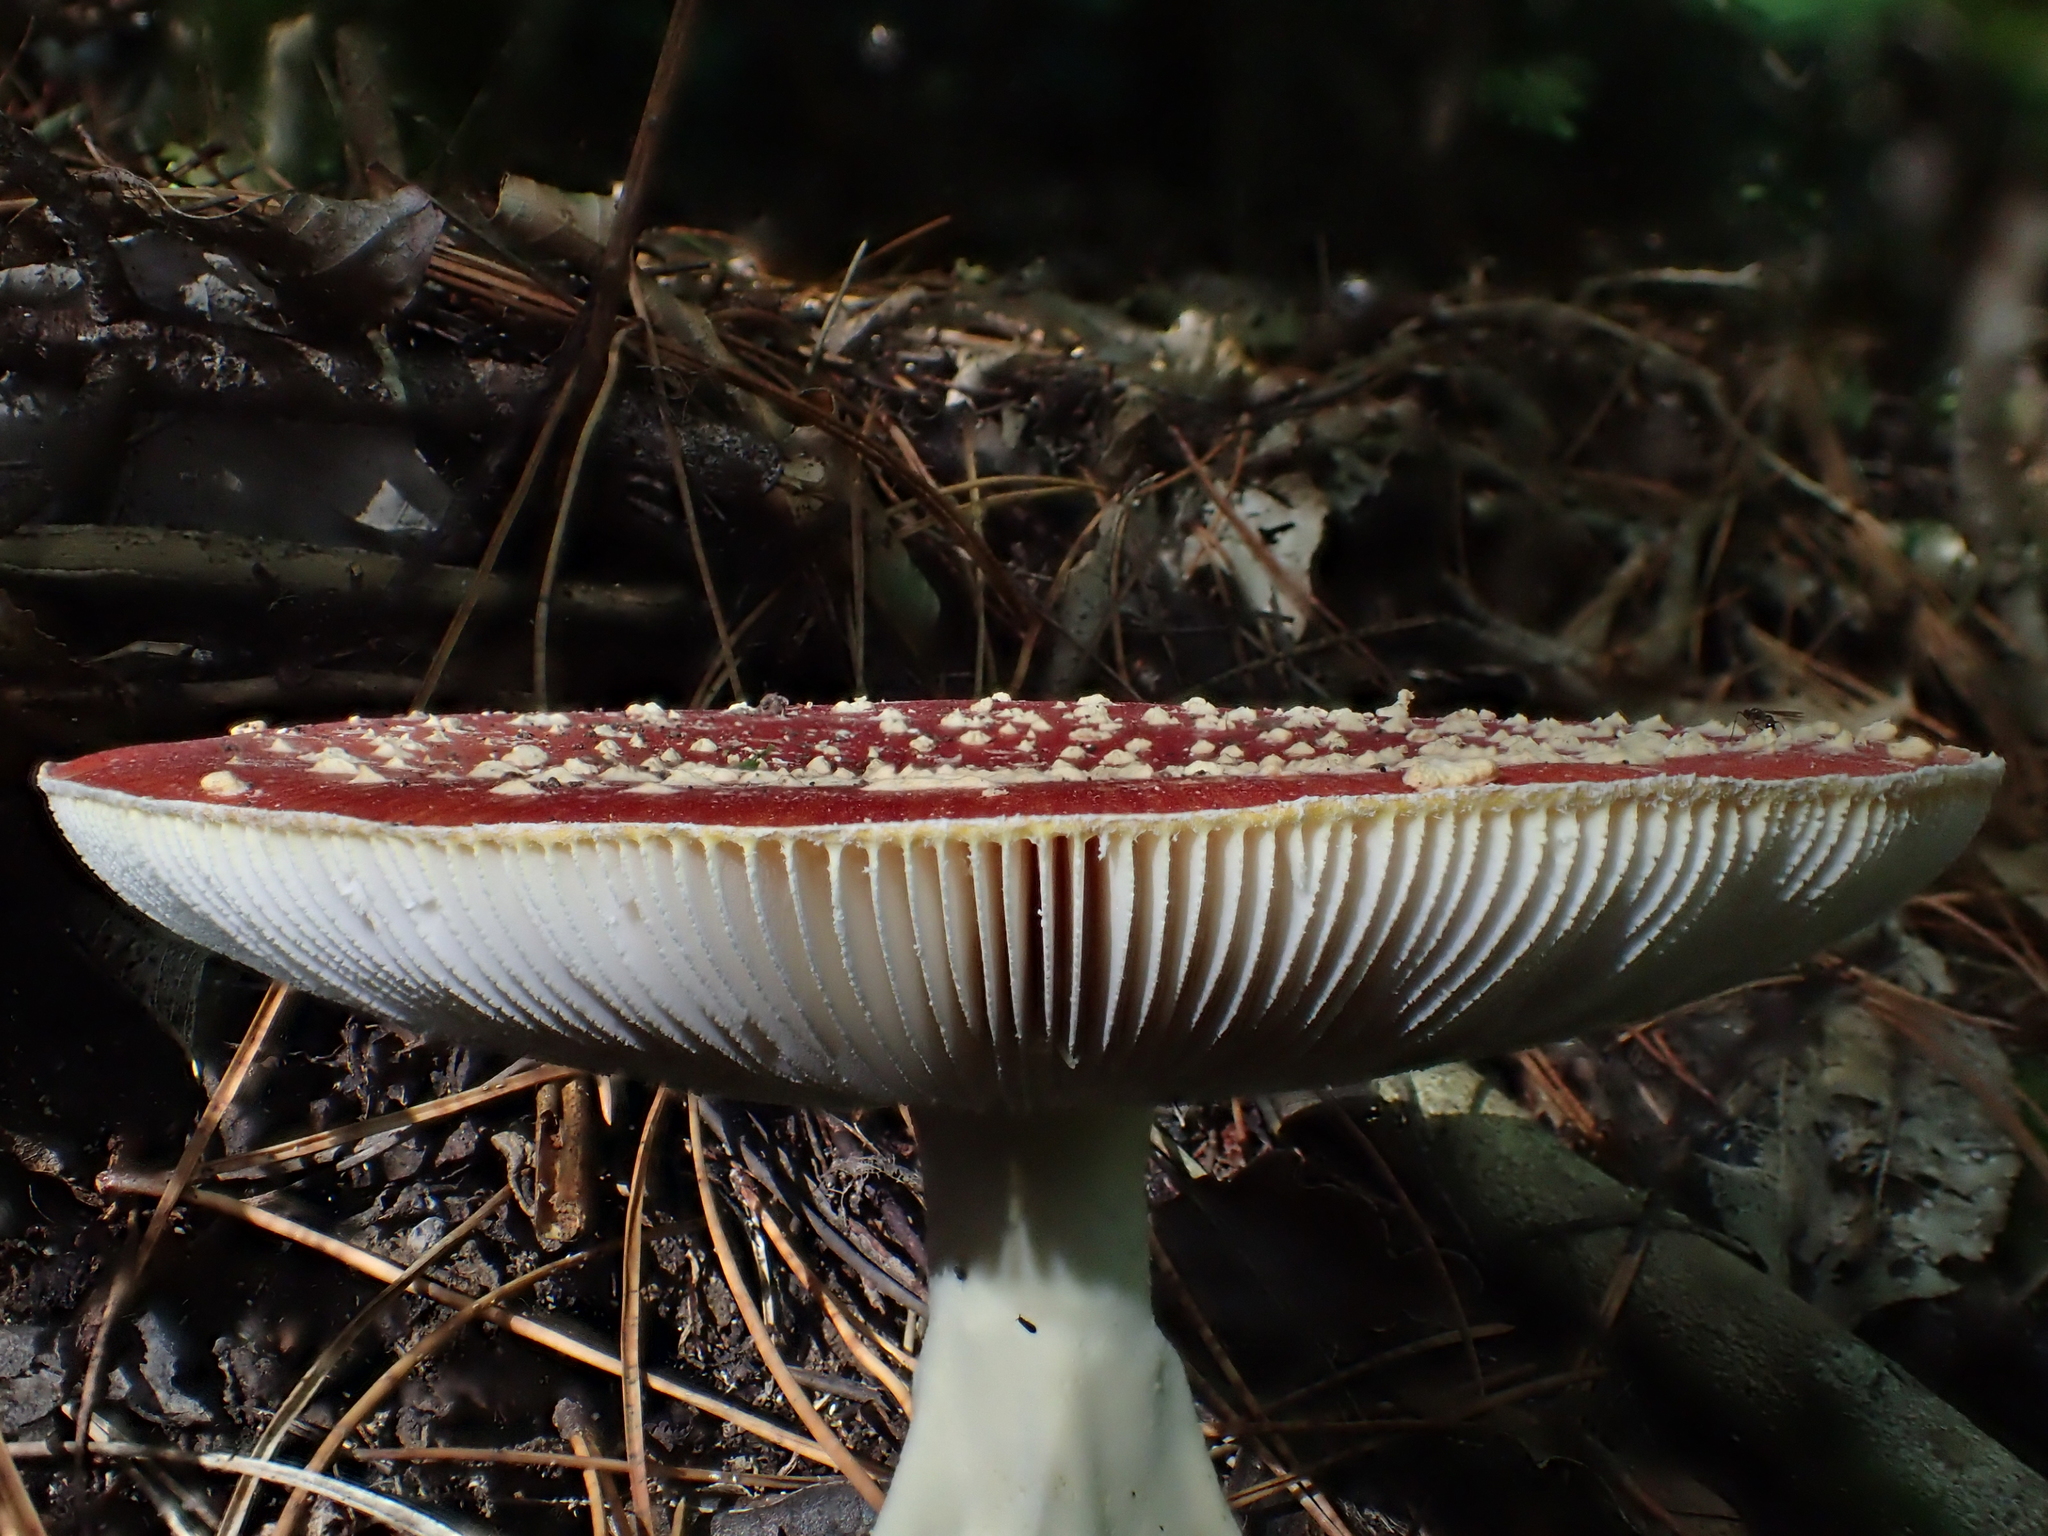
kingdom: Fungi
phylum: Basidiomycota
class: Agaricomycetes
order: Agaricales
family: Amanitaceae
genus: Amanita
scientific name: Amanita muscaria
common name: Fly agaric
